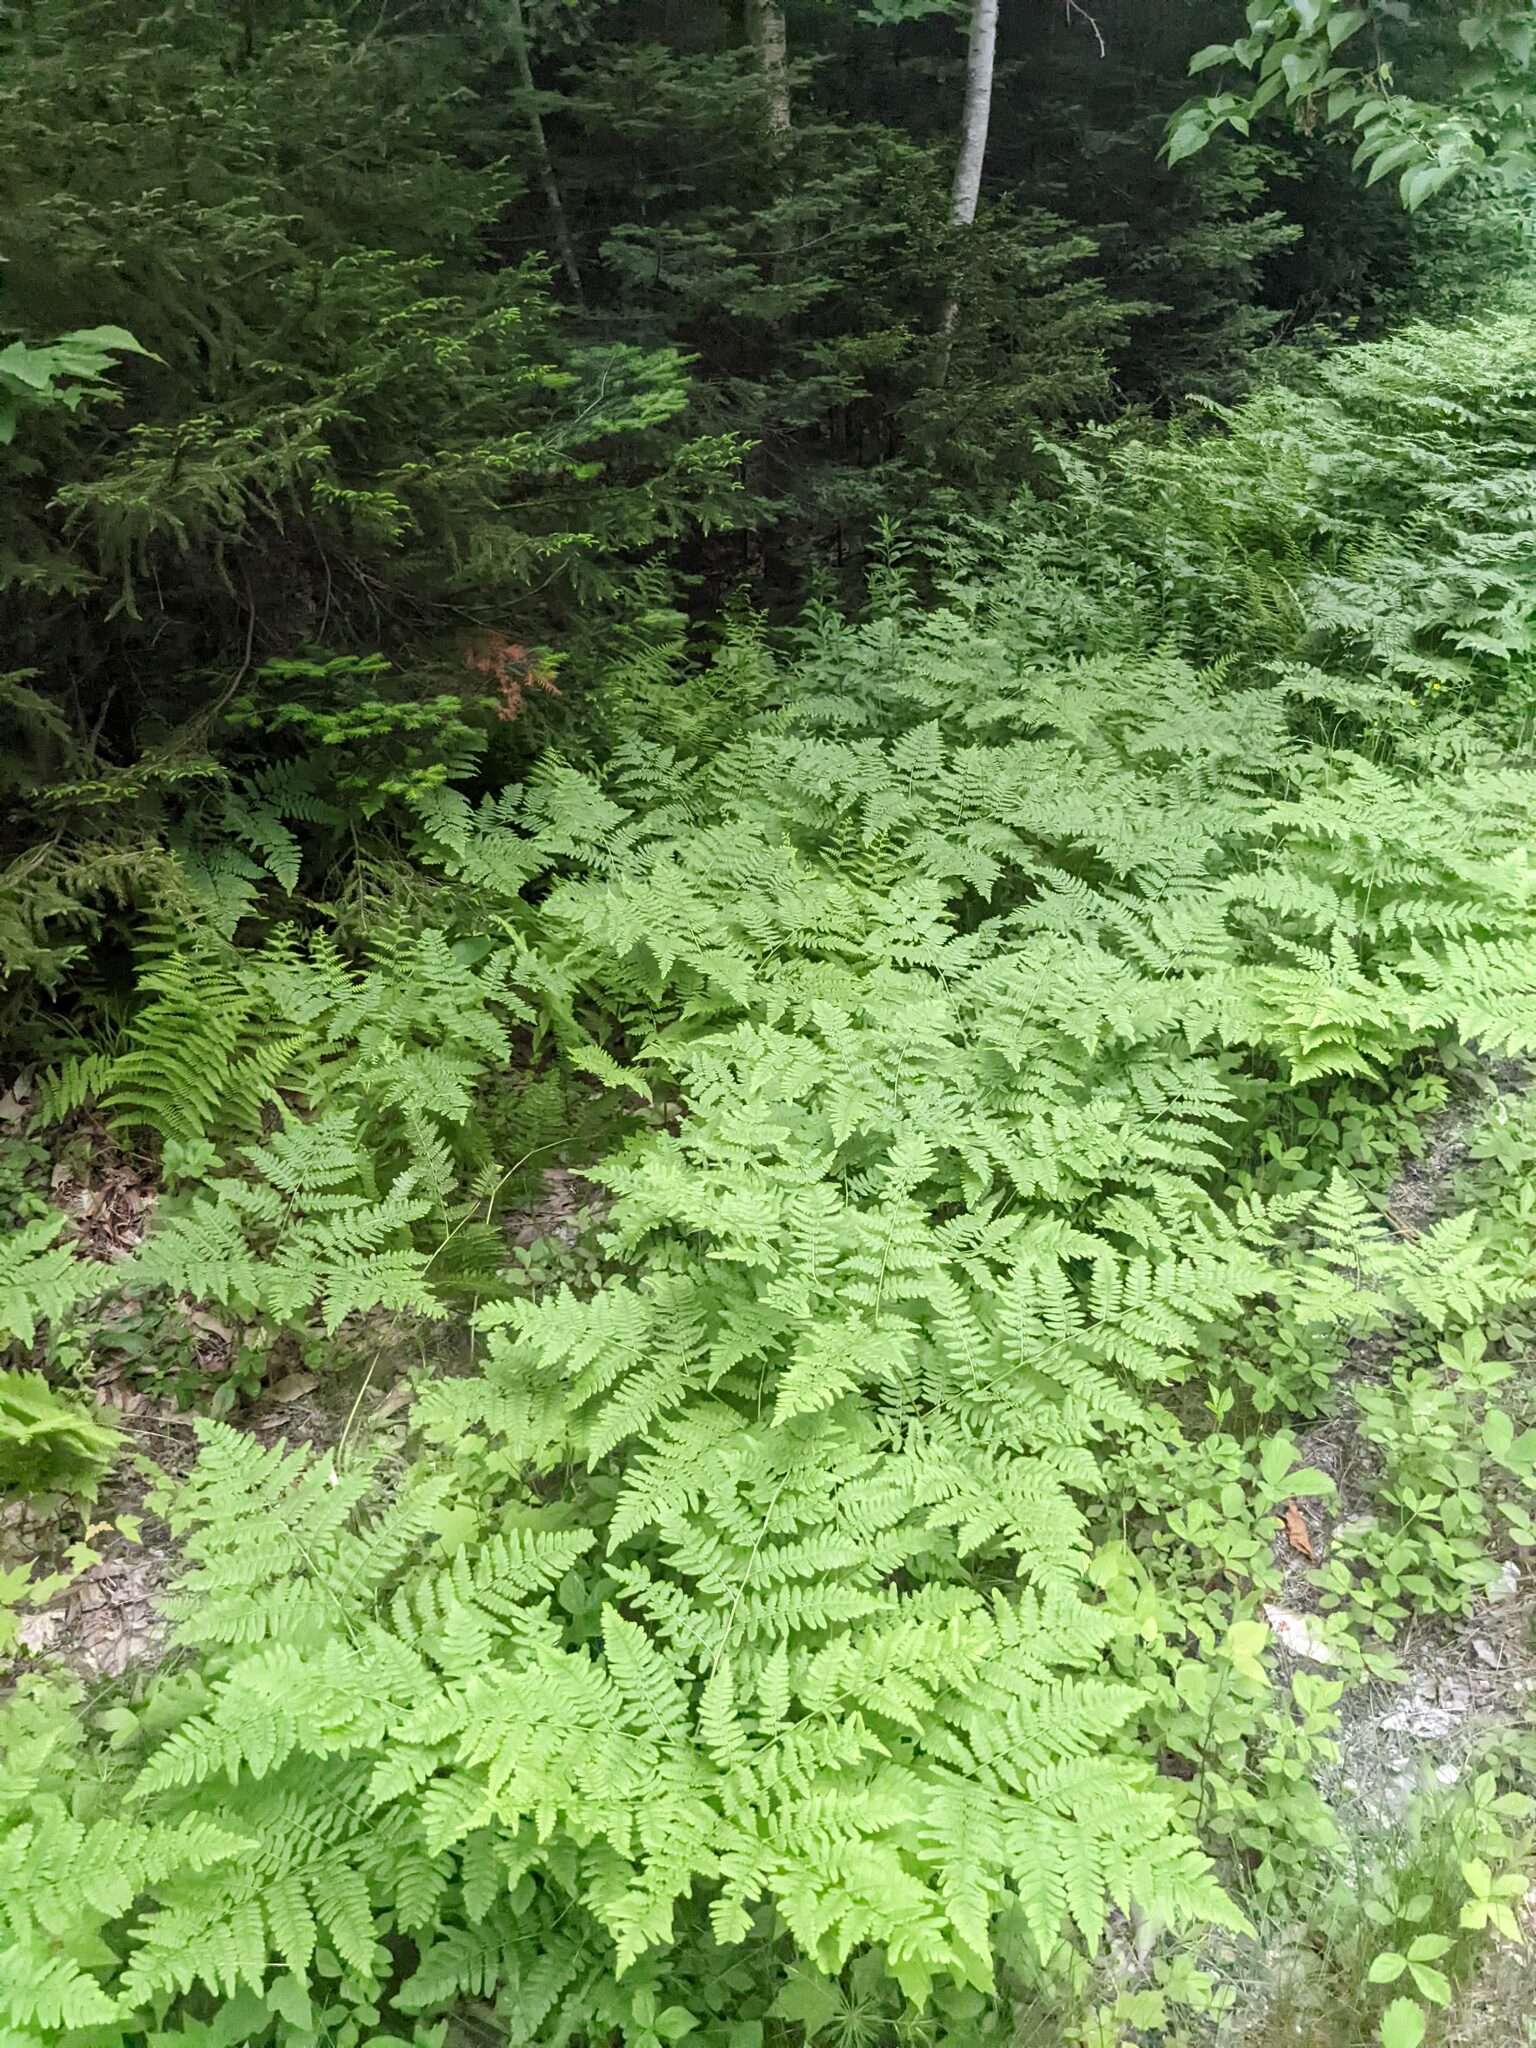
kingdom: Plantae
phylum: Tracheophyta
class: Polypodiopsida
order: Polypodiales
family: Dennstaedtiaceae
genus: Pteridium
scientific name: Pteridium aquilinum
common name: Bracken
